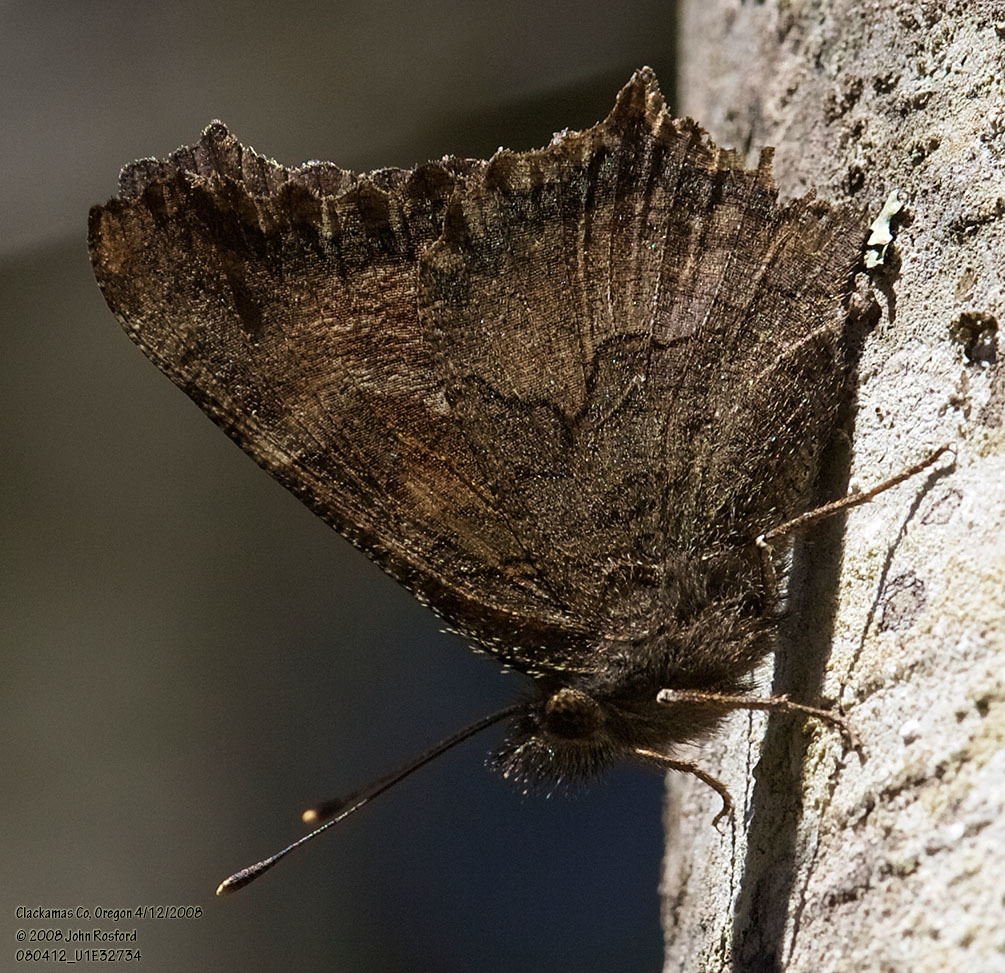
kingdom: Animalia
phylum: Arthropoda
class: Insecta
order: Lepidoptera
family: Nymphalidae
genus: Nymphalis
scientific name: Nymphalis californica
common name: California tortoiseshell
